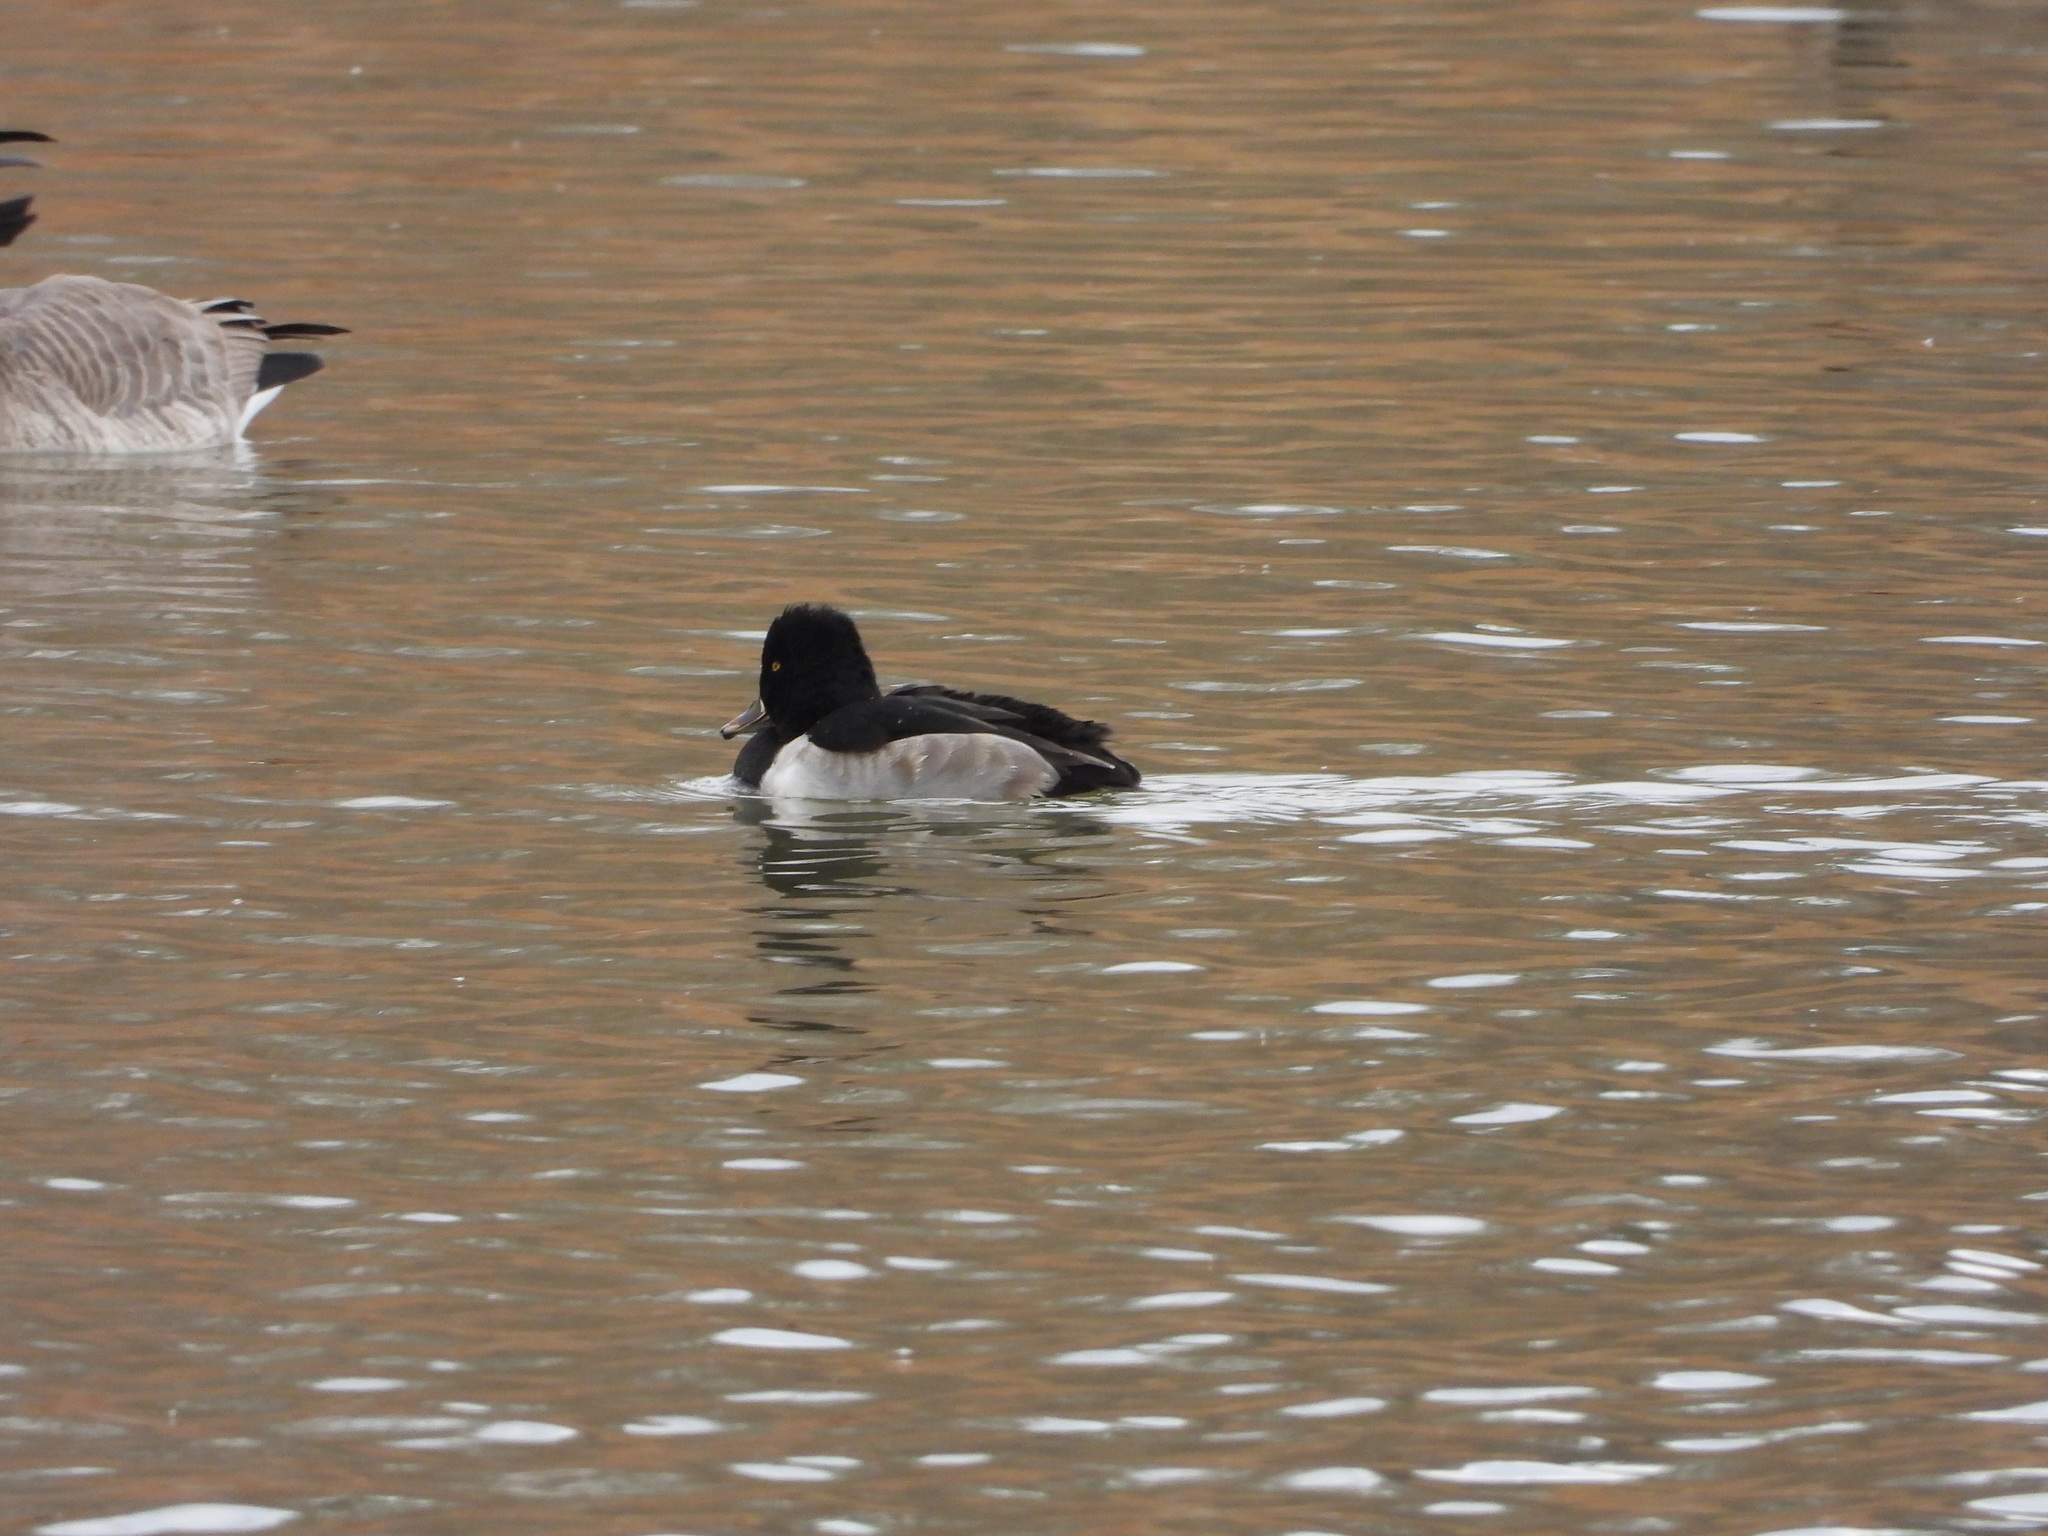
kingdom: Animalia
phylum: Chordata
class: Aves
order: Anseriformes
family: Anatidae
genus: Aythya
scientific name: Aythya collaris
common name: Ring-necked duck
